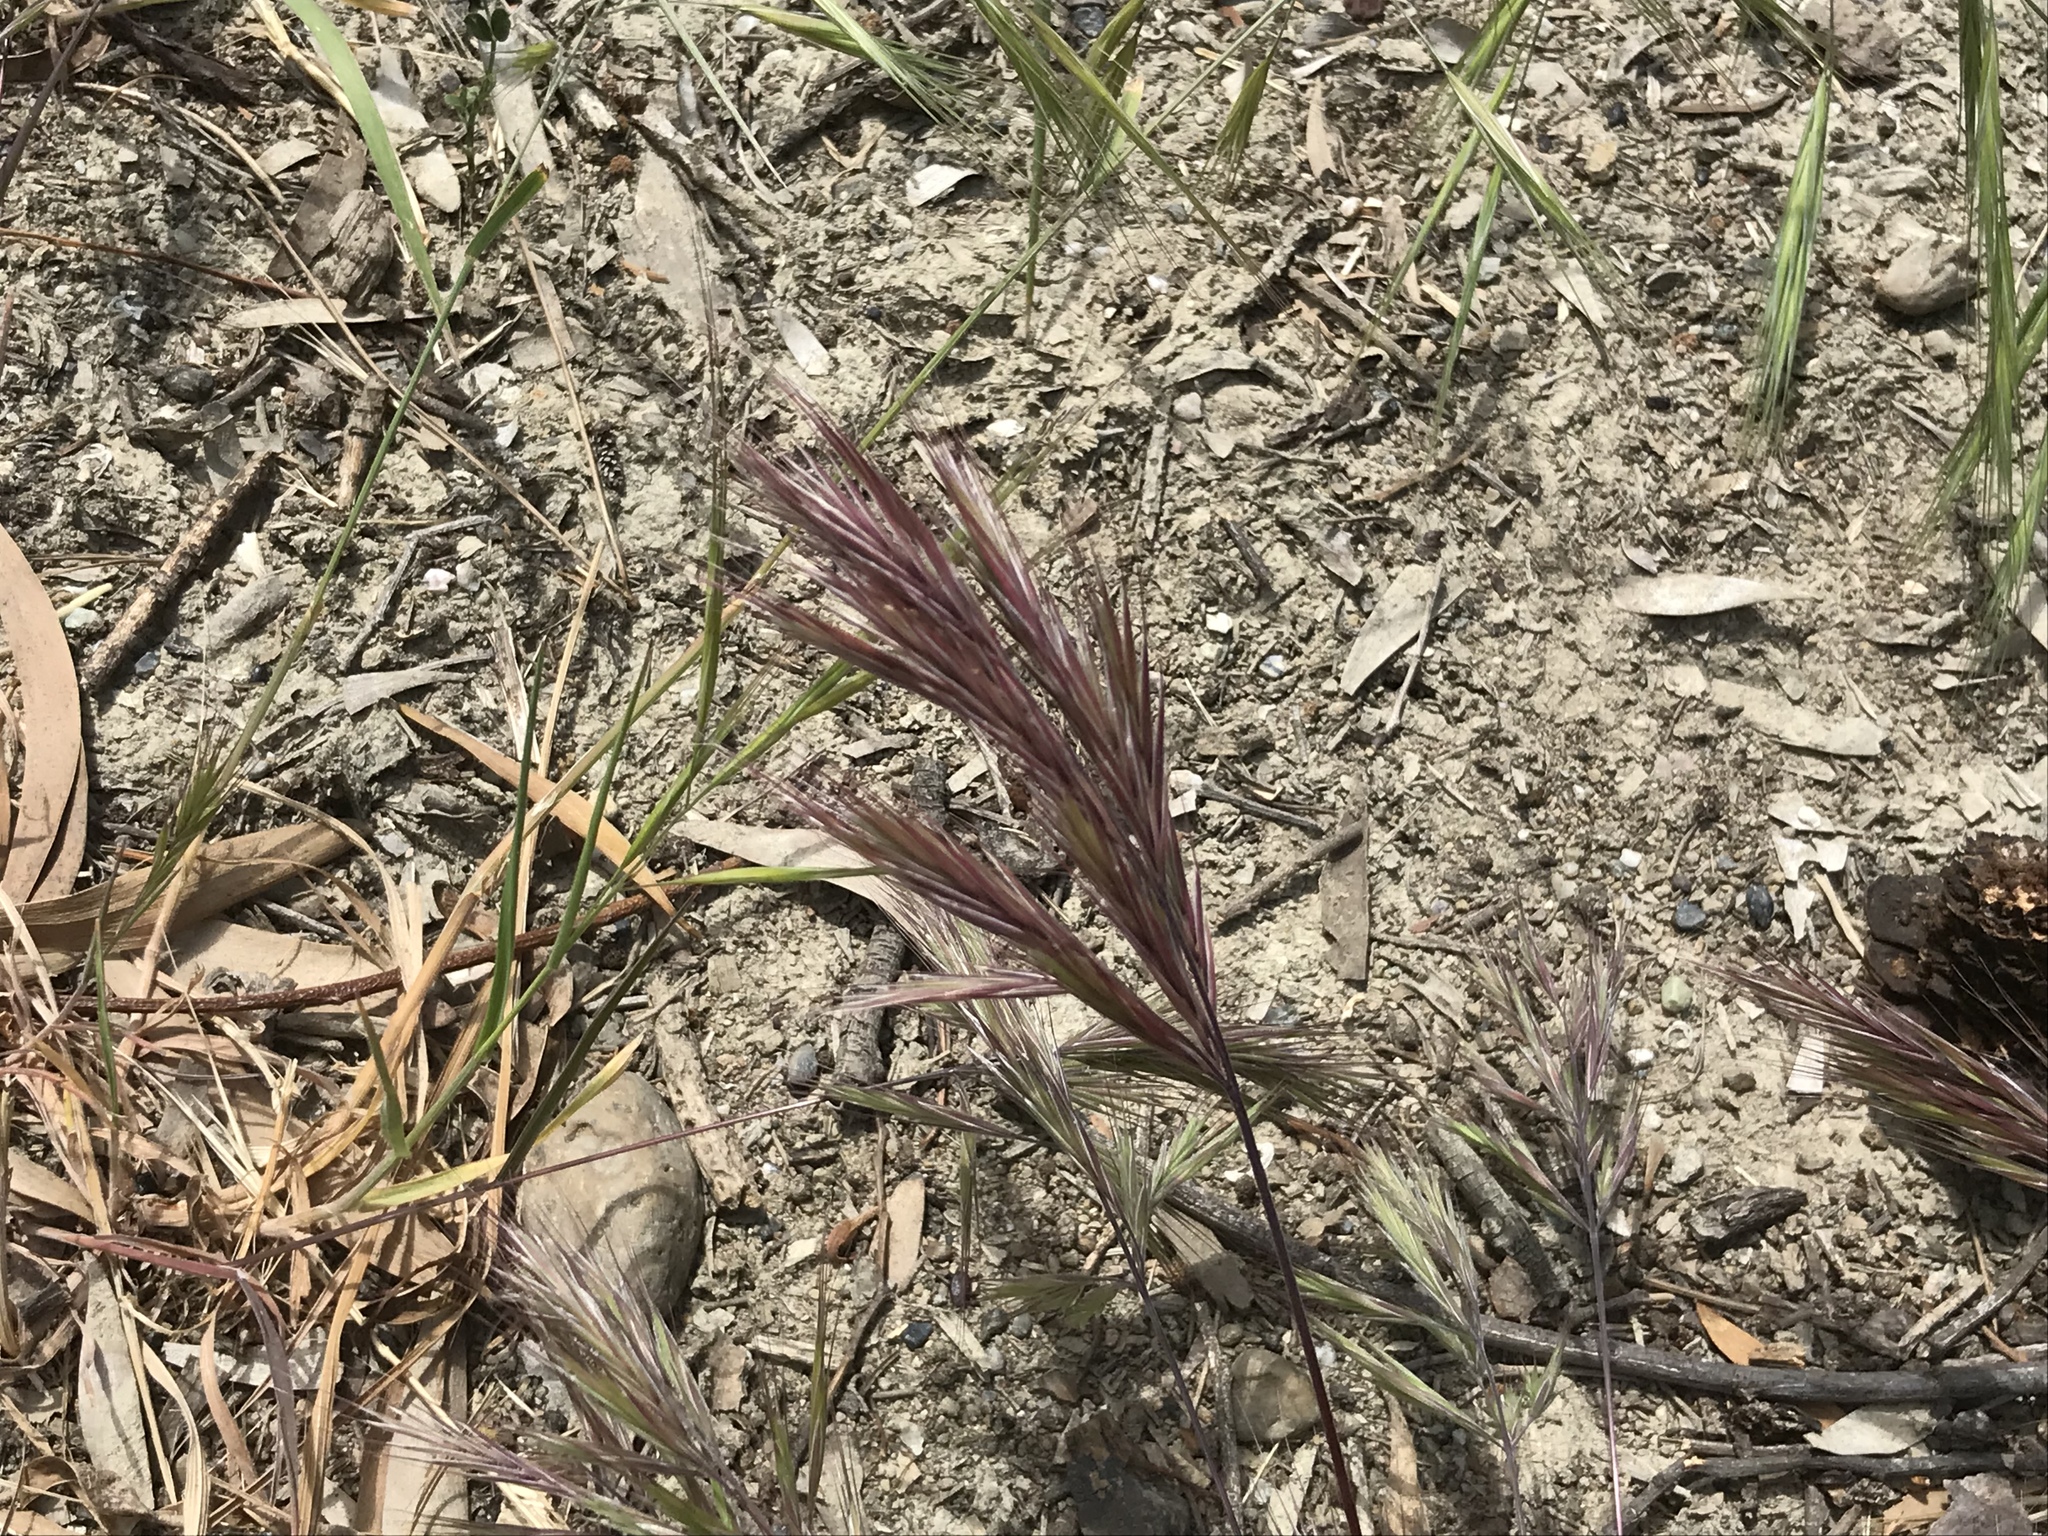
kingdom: Plantae
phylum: Tracheophyta
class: Liliopsida
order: Poales
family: Poaceae
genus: Bromus
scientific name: Bromus madritensis
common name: Compact brome
